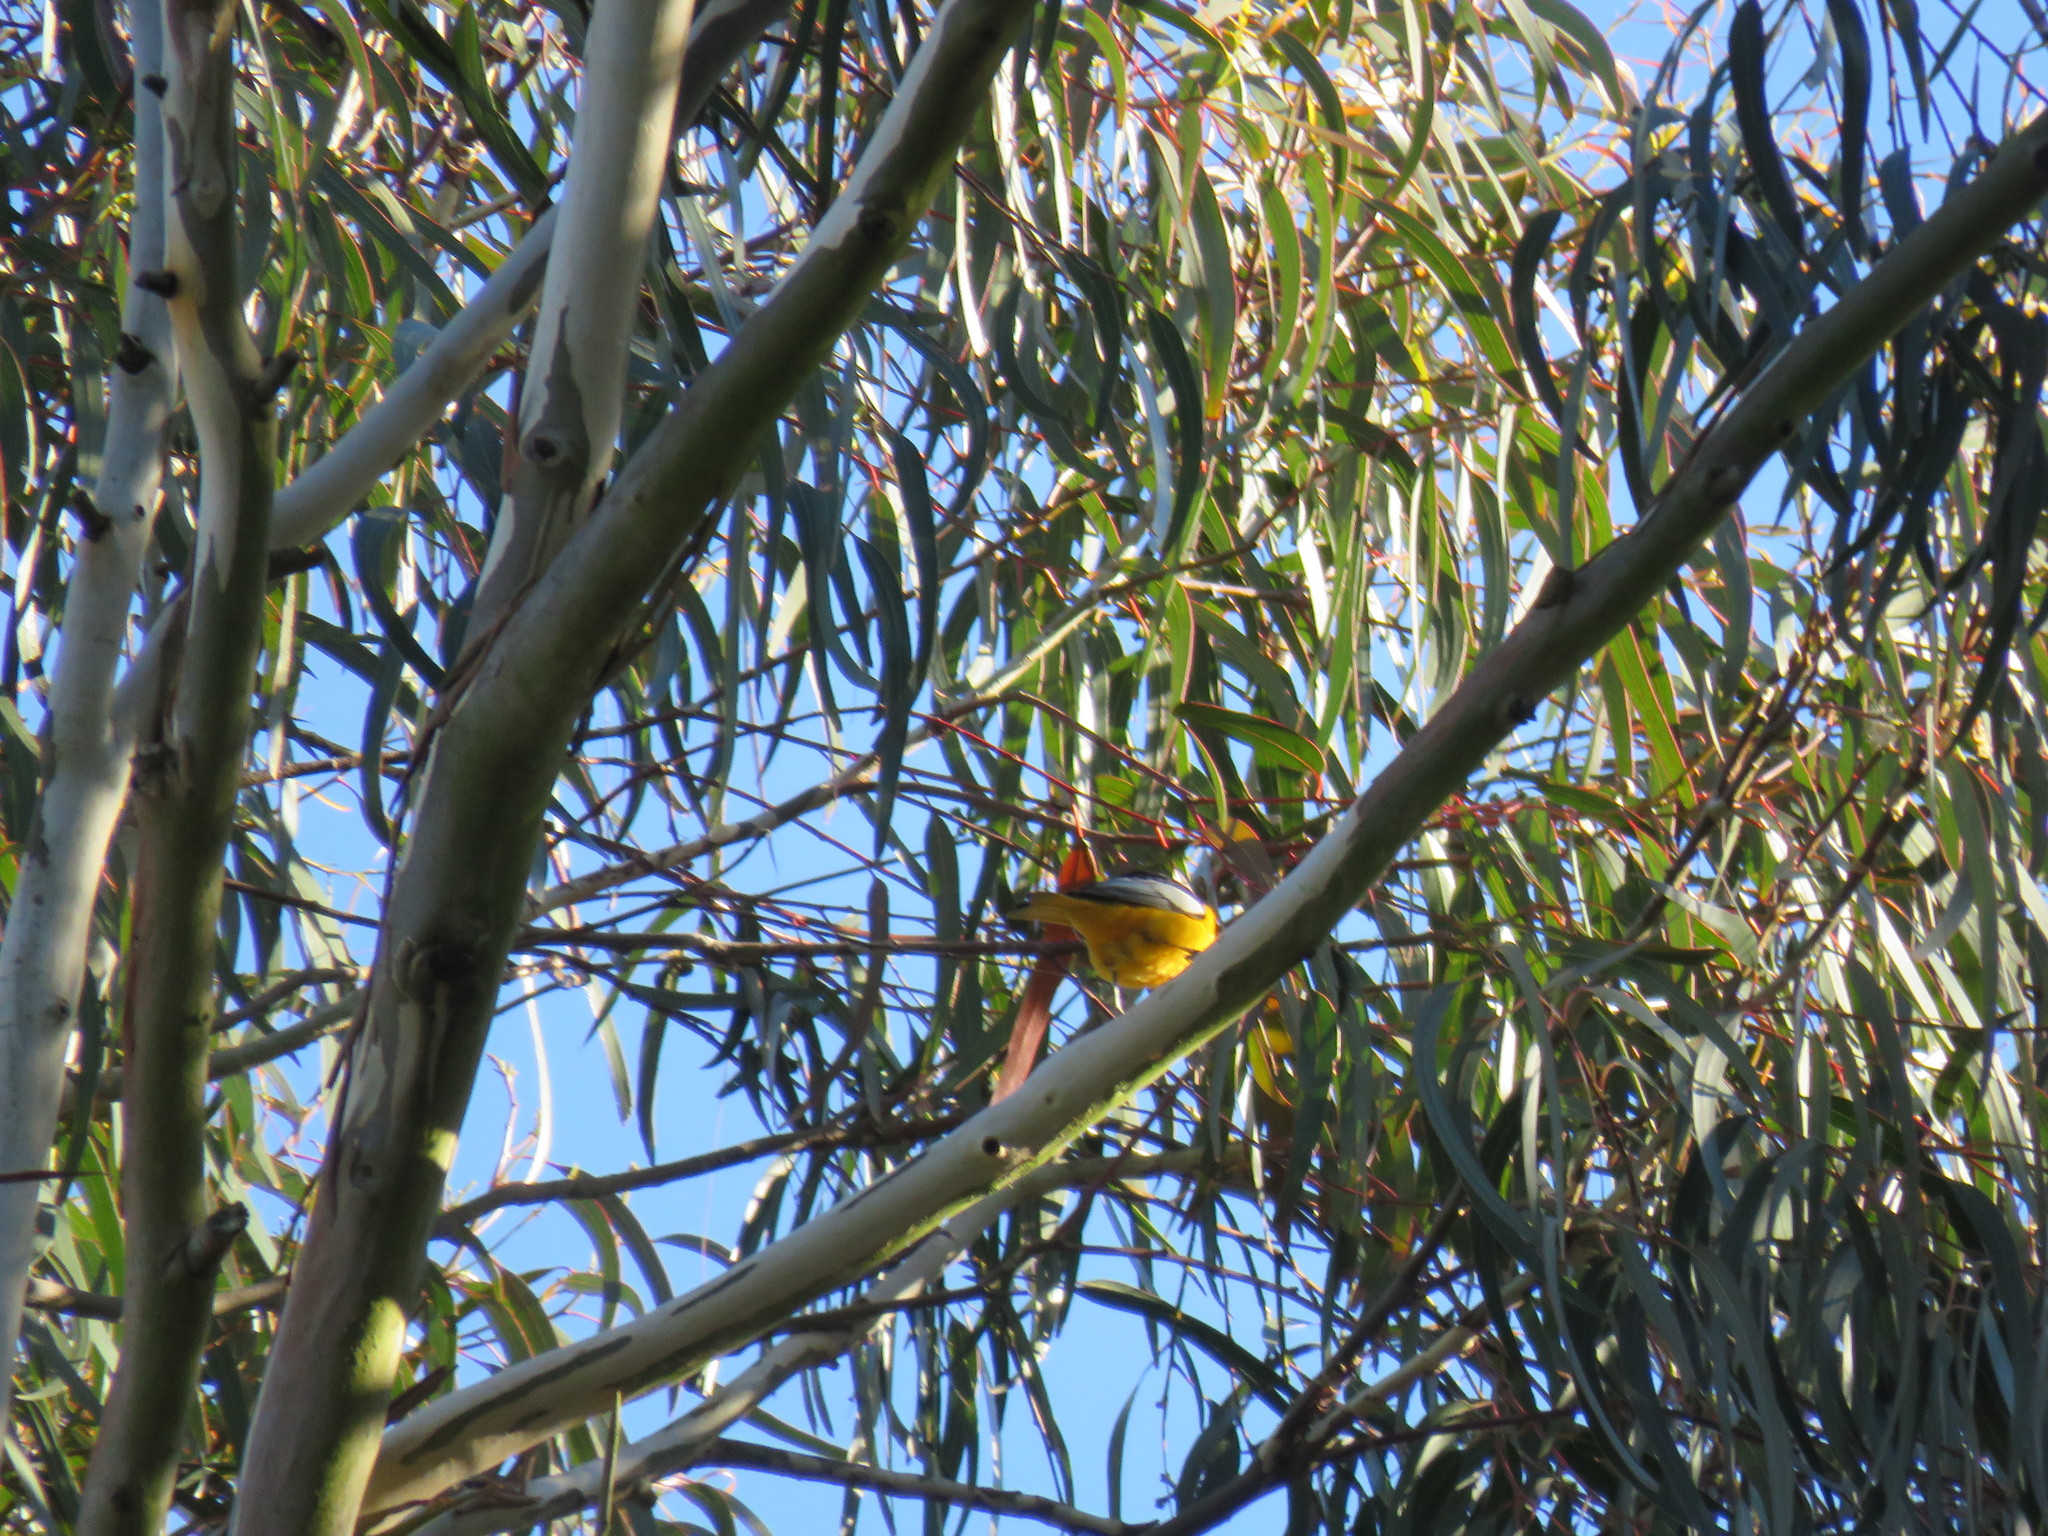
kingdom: Animalia
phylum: Chordata
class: Aves
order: Passeriformes
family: Icteridae
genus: Icterus
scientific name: Icterus bullockii
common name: Bullock's oriole
